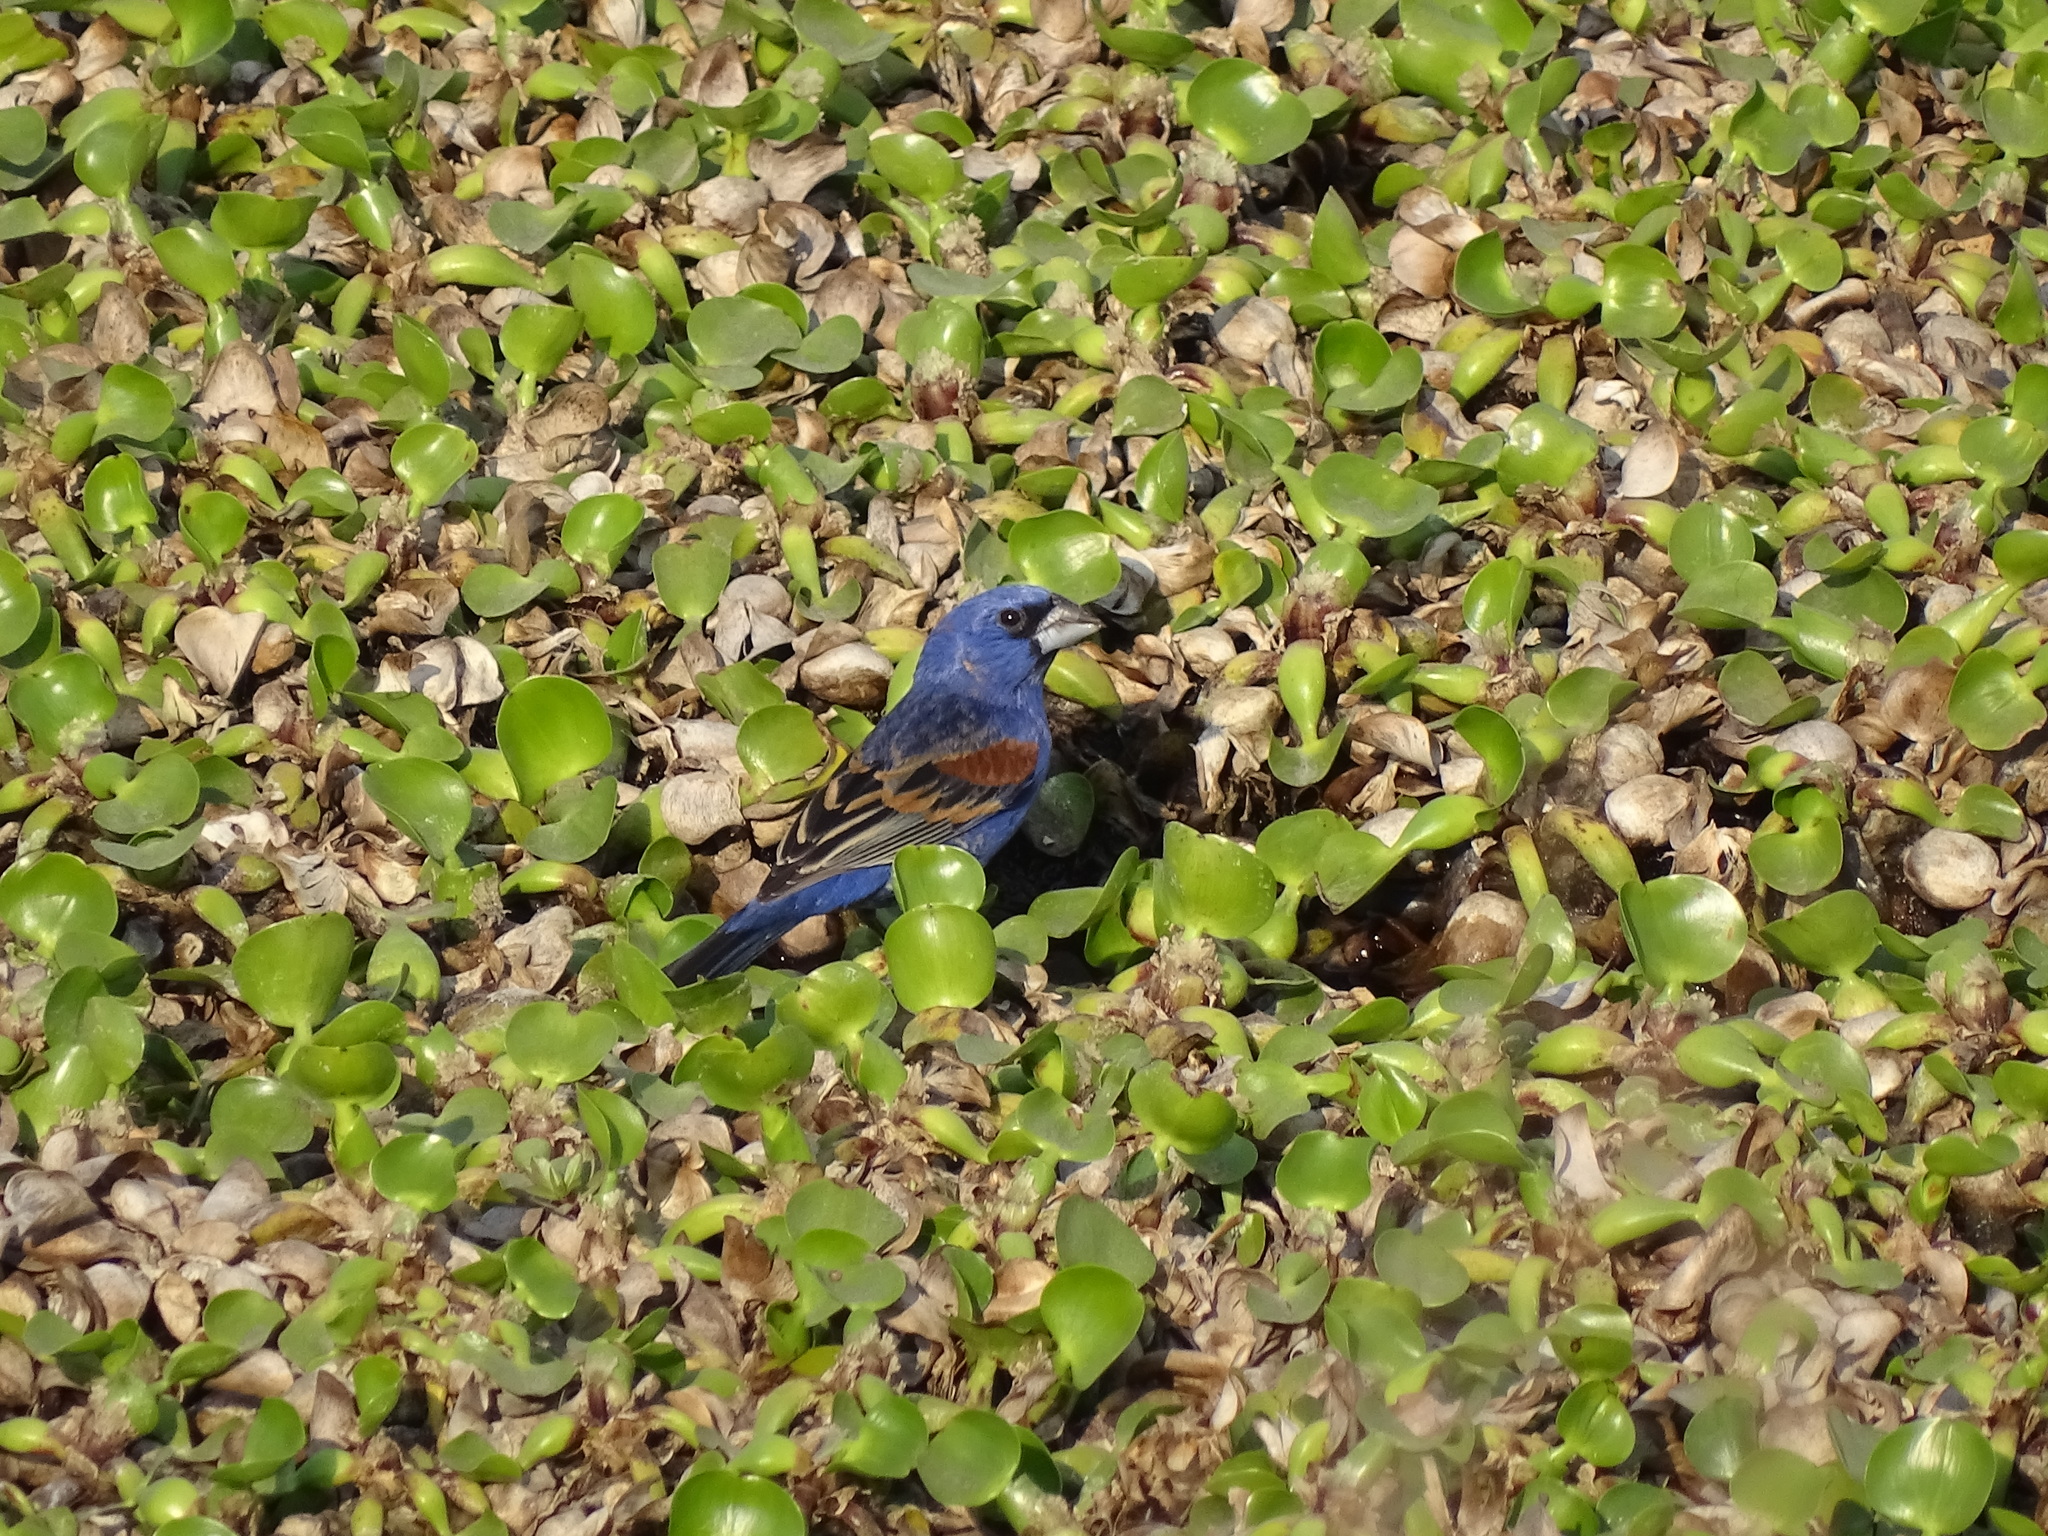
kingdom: Animalia
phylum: Chordata
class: Aves
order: Passeriformes
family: Cardinalidae
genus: Passerina
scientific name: Passerina caerulea
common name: Blue grosbeak
